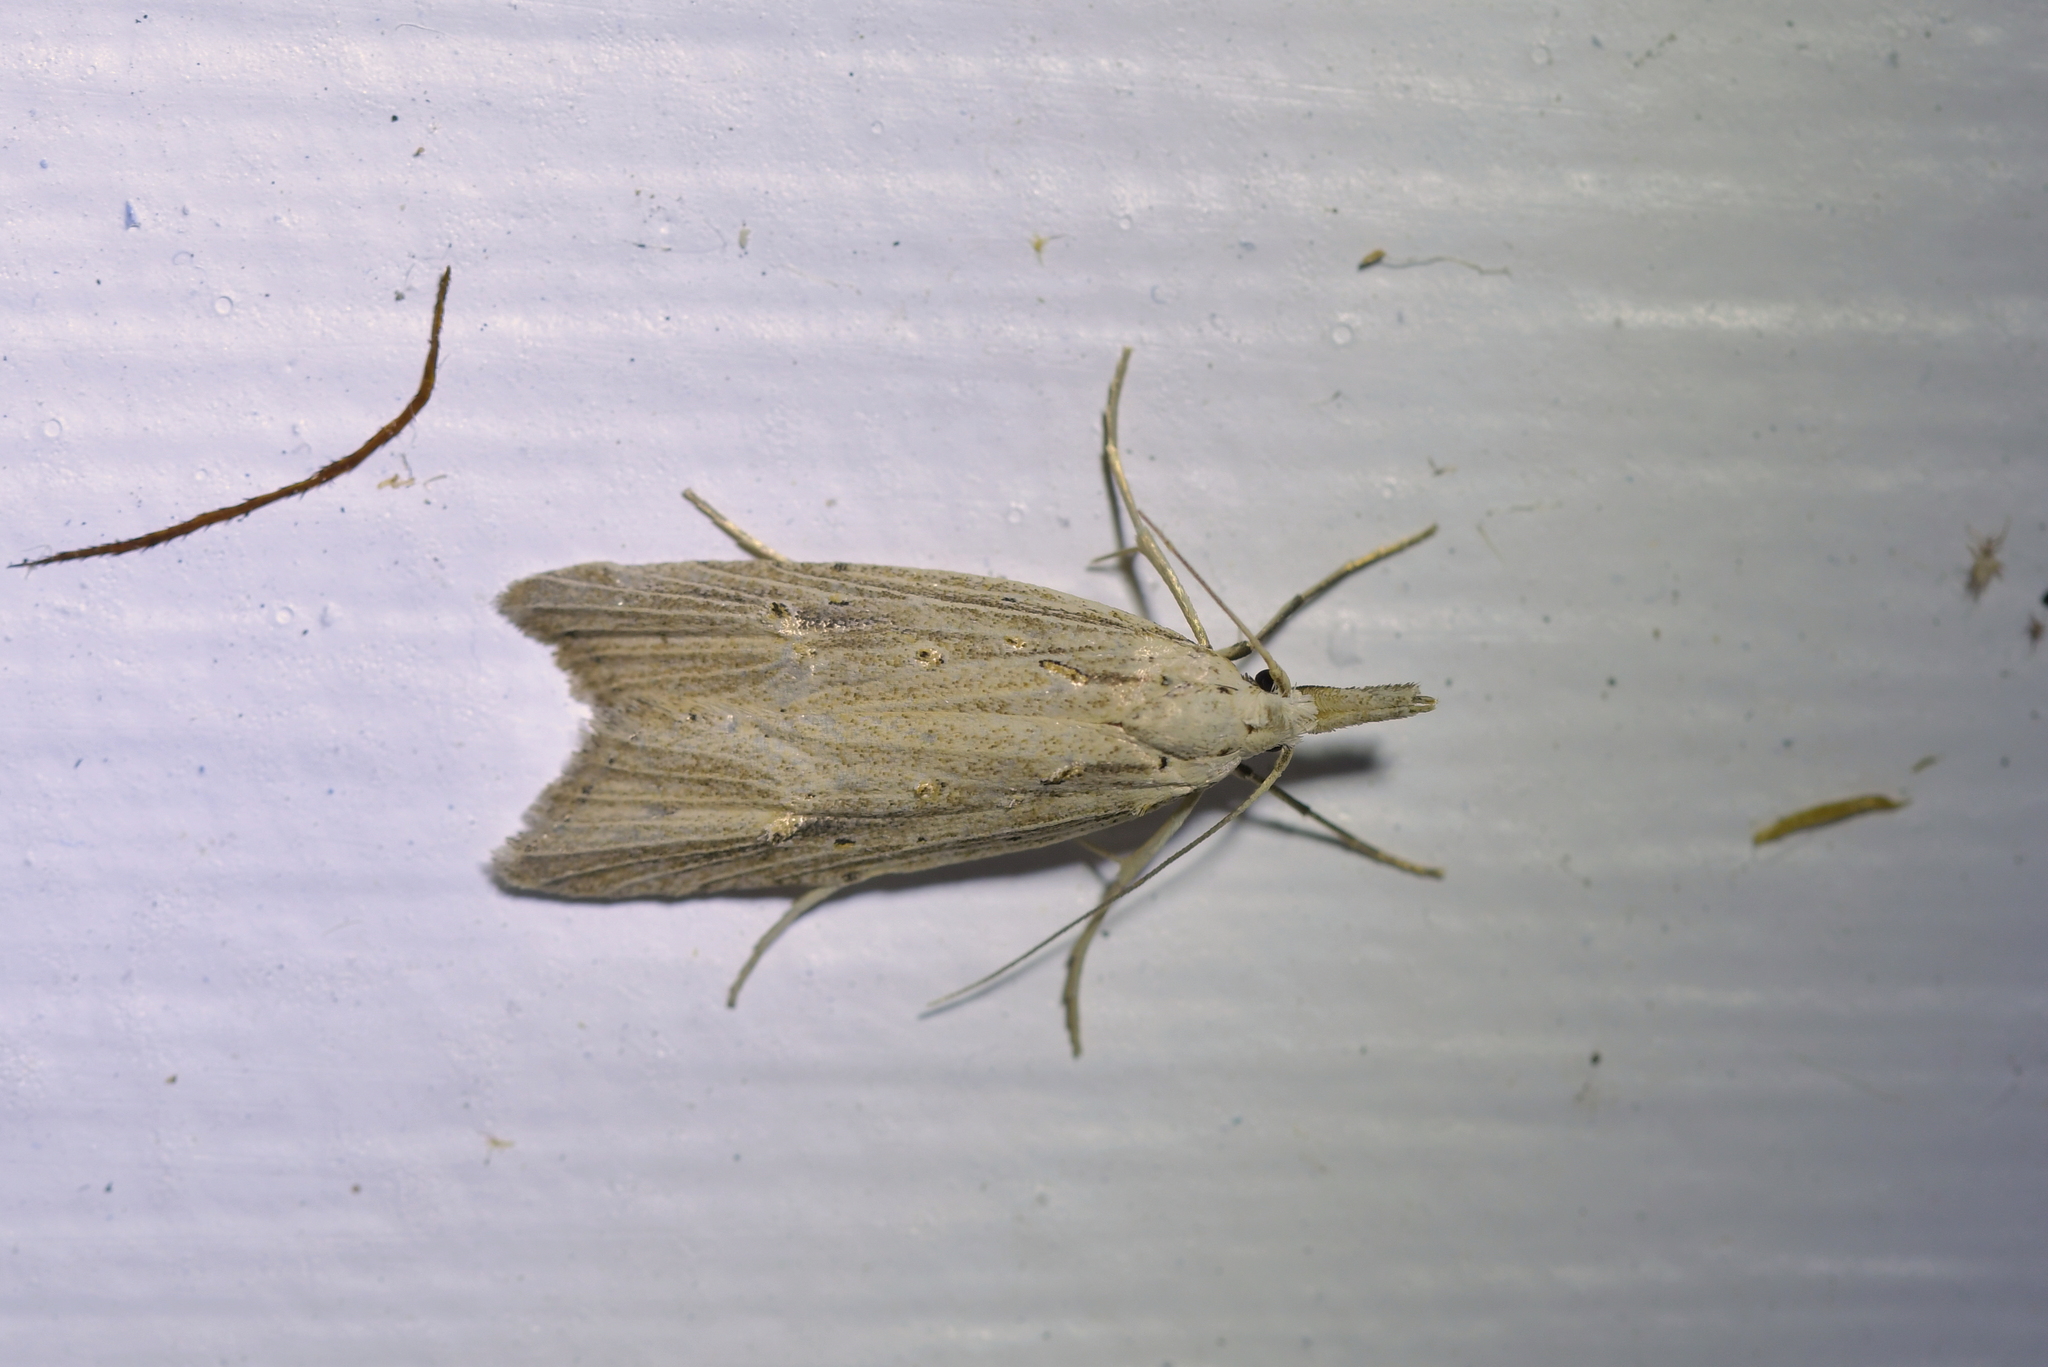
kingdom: Animalia
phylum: Arthropoda
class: Insecta
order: Lepidoptera
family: Carposinidae
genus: Carposina
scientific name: Carposina Heterocrossa exochana
